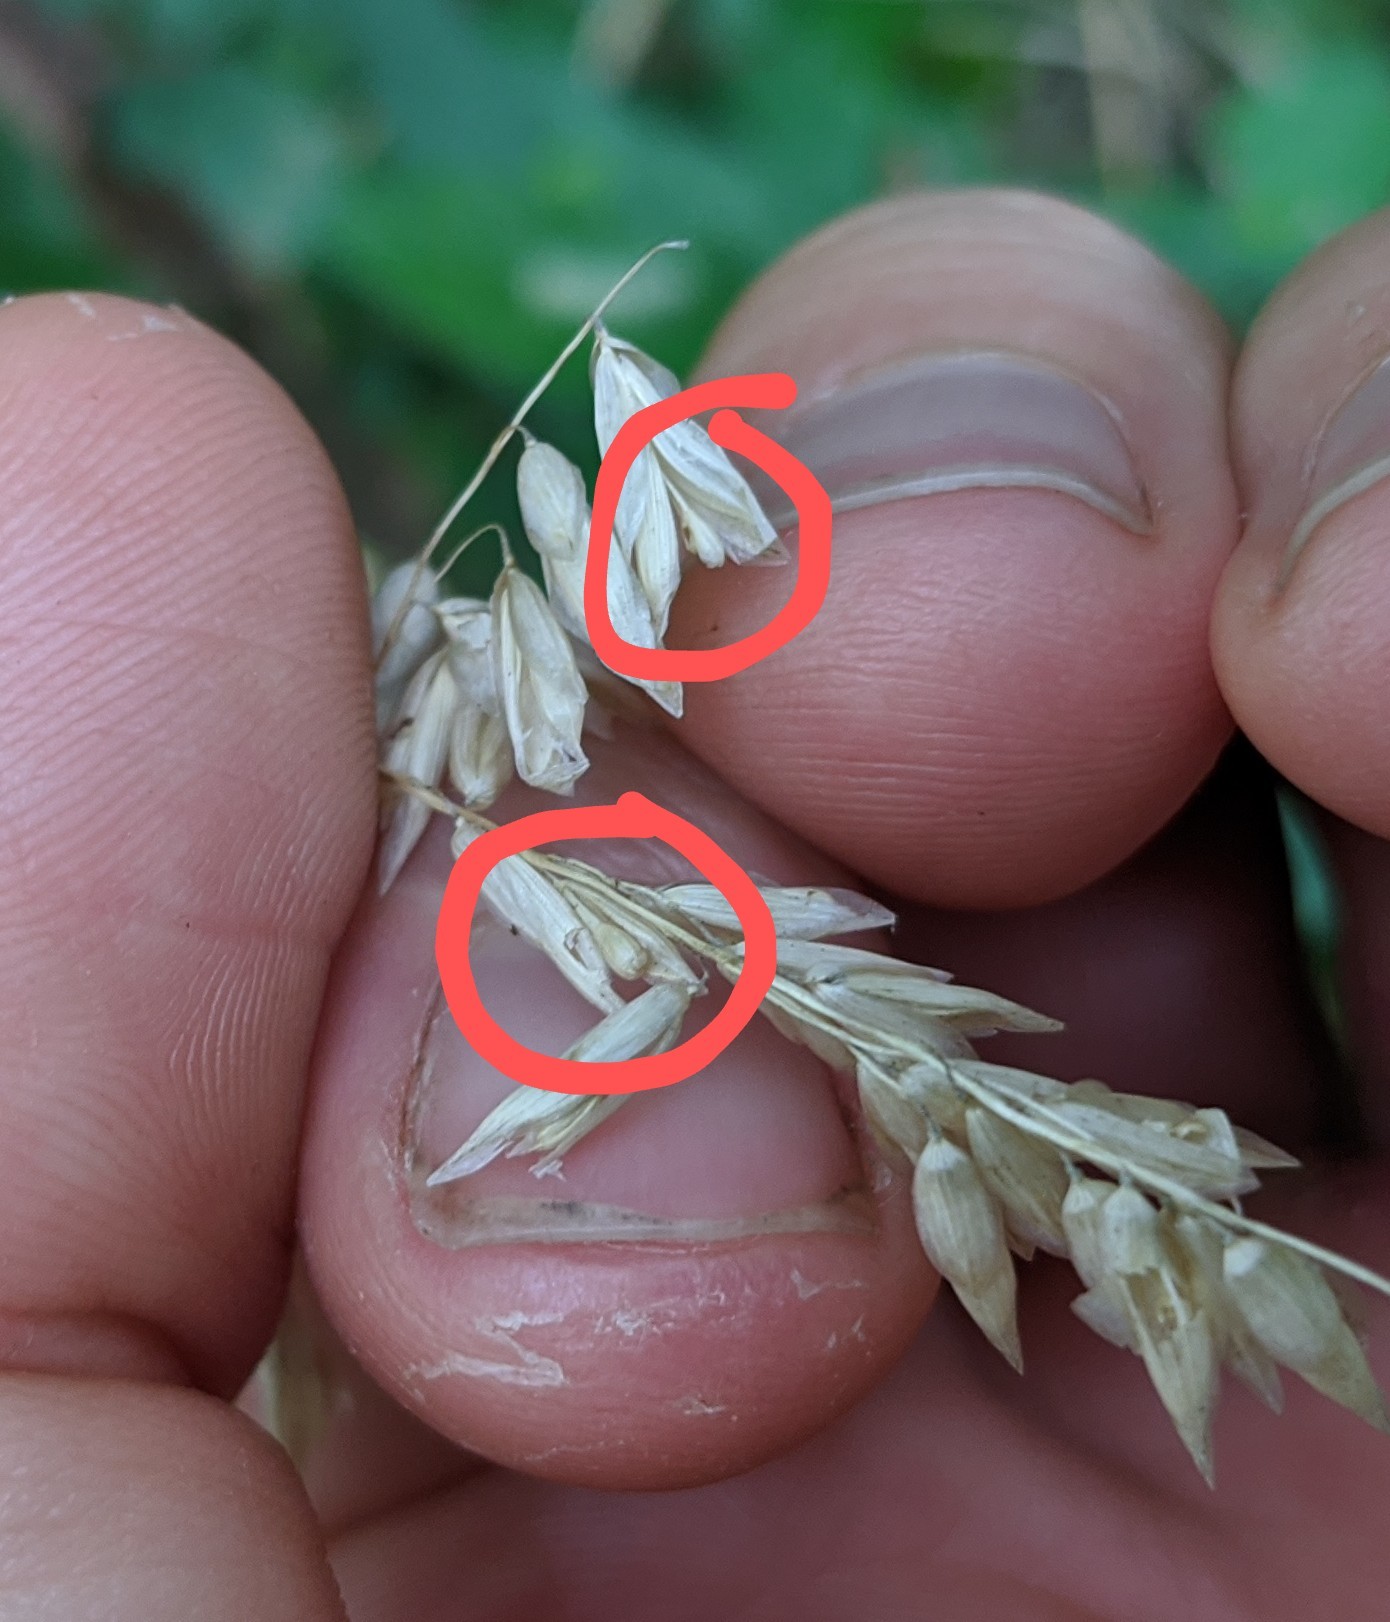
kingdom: Plantae
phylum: Tracheophyta
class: Liliopsida
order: Poales
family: Poaceae
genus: Melica
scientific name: Melica nitens
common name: Three-flower melic
